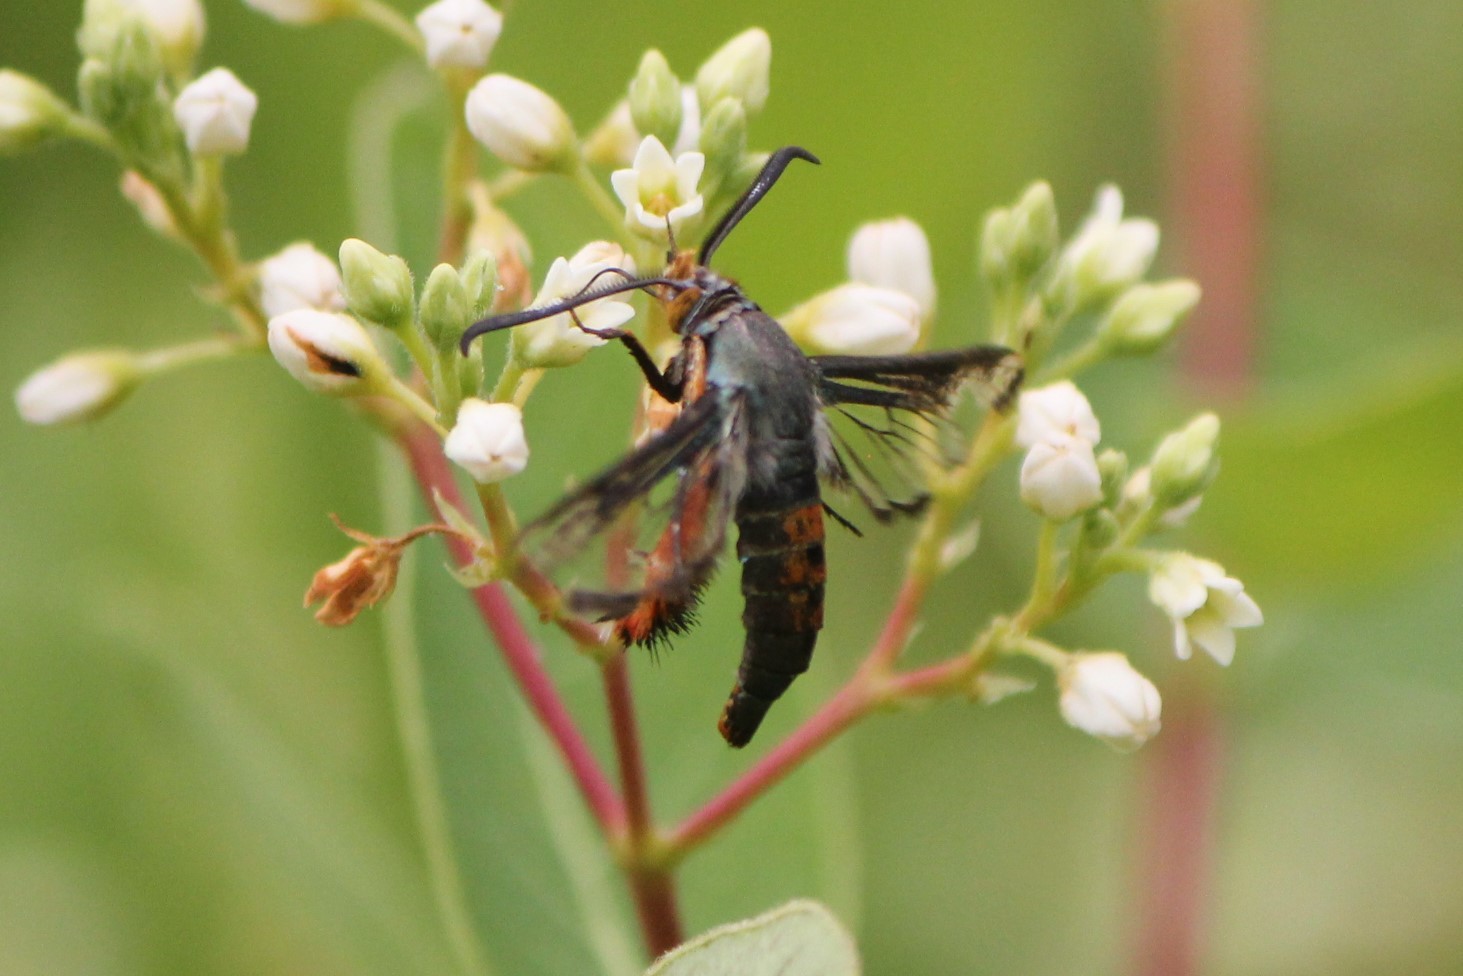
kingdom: Animalia
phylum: Arthropoda
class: Insecta
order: Lepidoptera
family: Sesiidae
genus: Eichlinia
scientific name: Eichlinia cucurbitae
